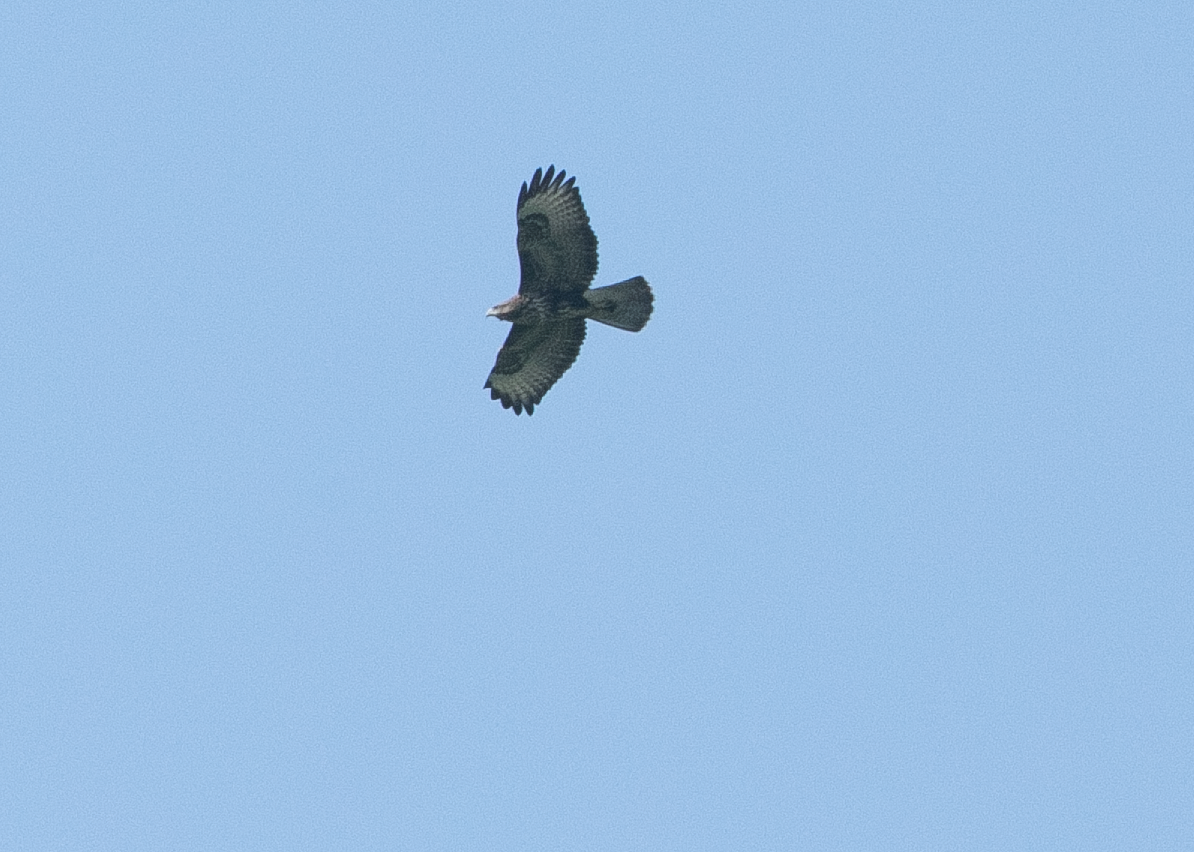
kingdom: Animalia
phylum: Chordata
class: Aves
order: Accipitriformes
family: Accipitridae
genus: Buteo
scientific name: Buteo buteo
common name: Common buzzard
